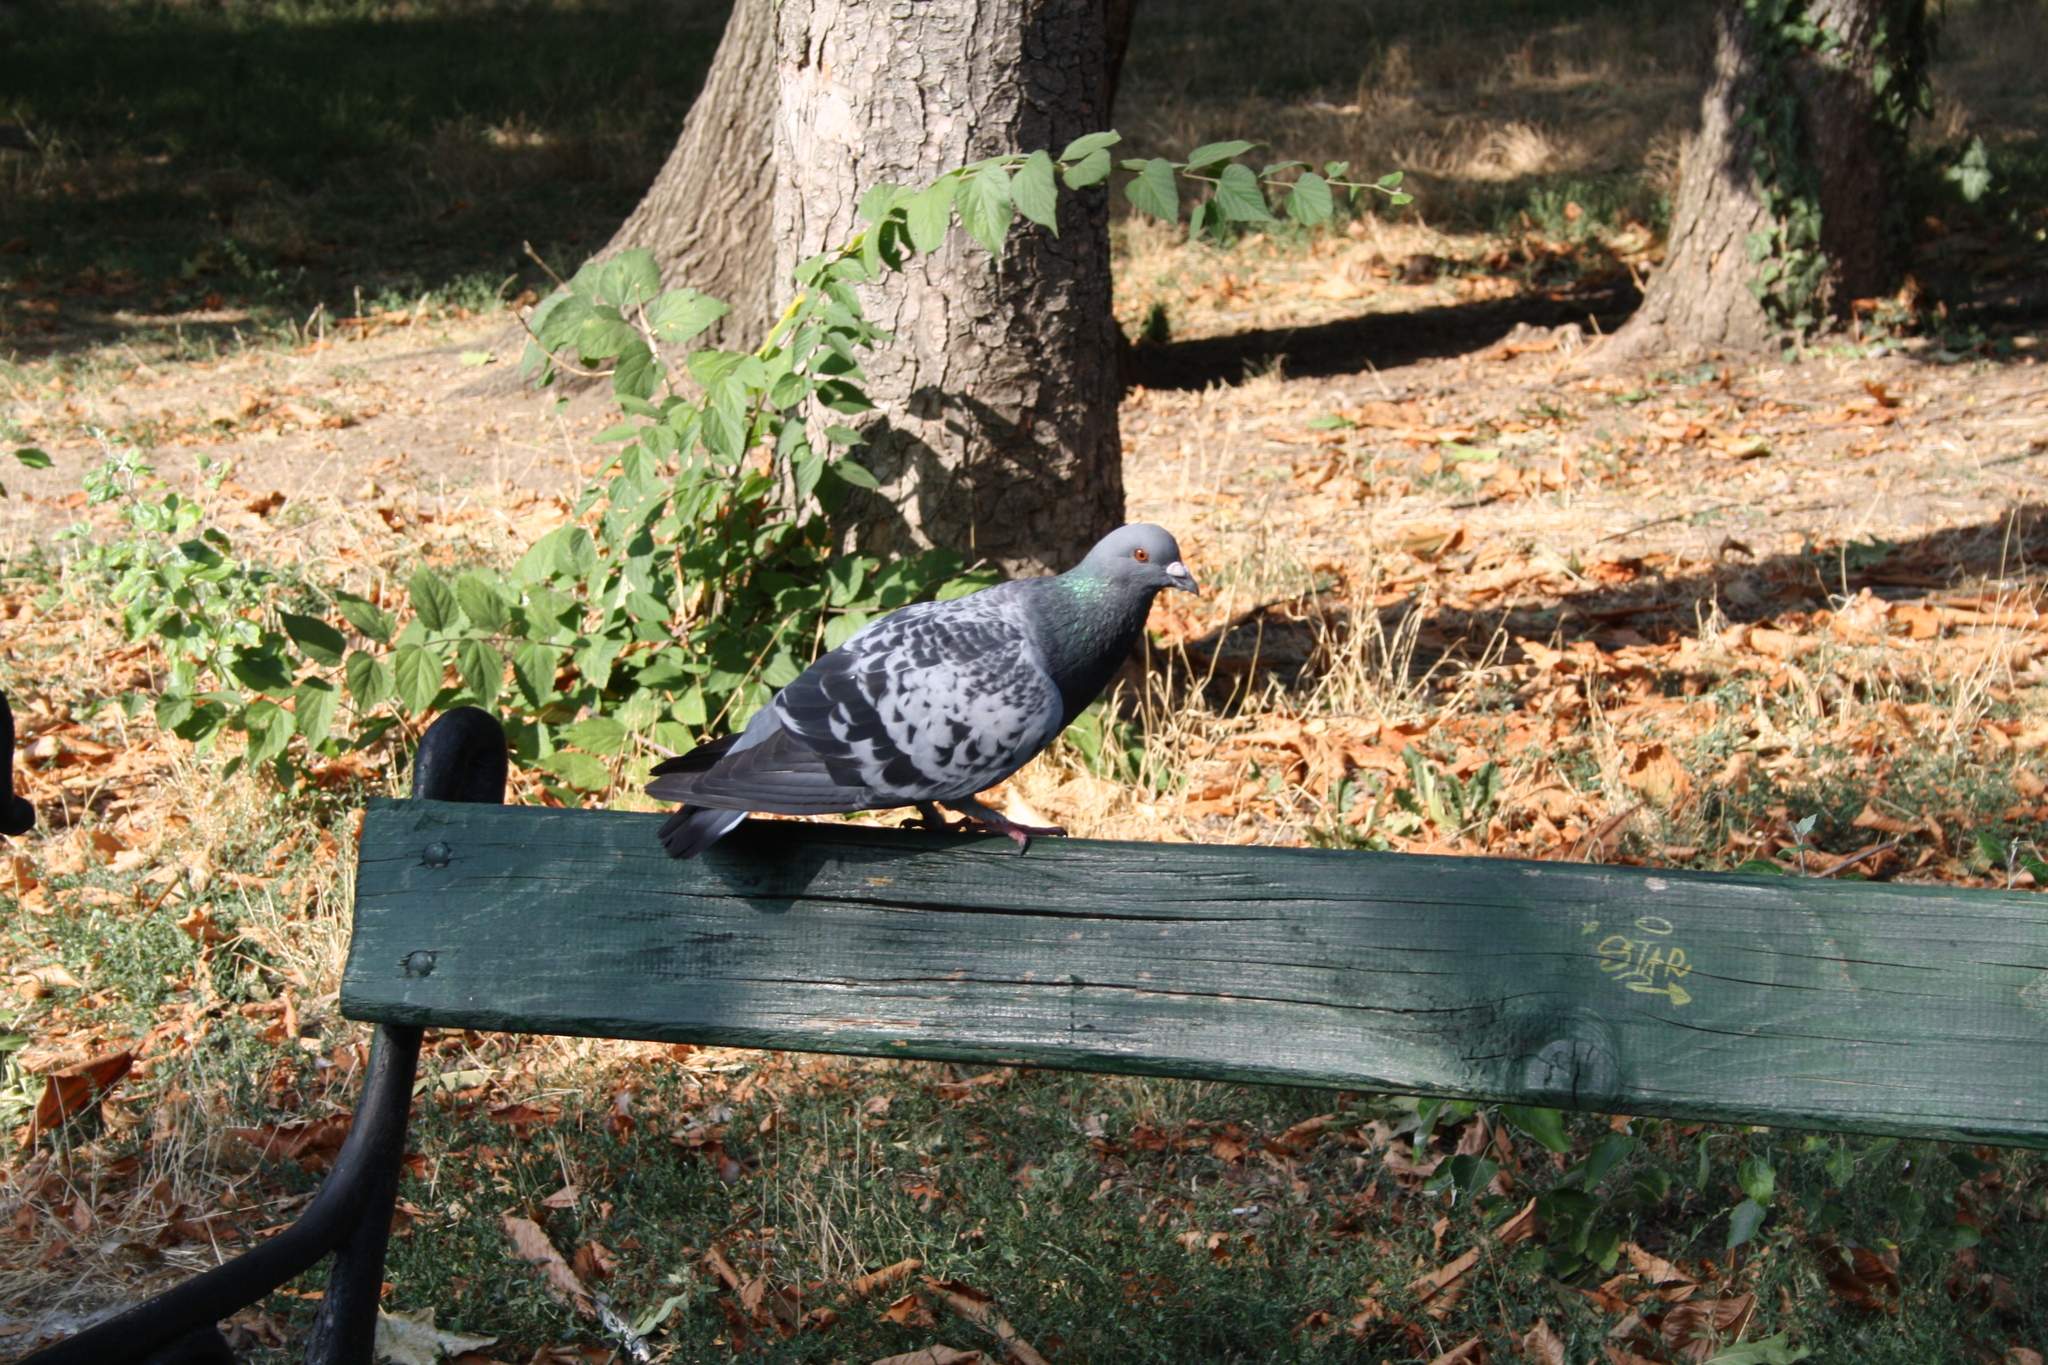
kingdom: Animalia
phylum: Chordata
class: Aves
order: Columbiformes
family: Columbidae
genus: Columba
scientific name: Columba livia
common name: Rock pigeon
